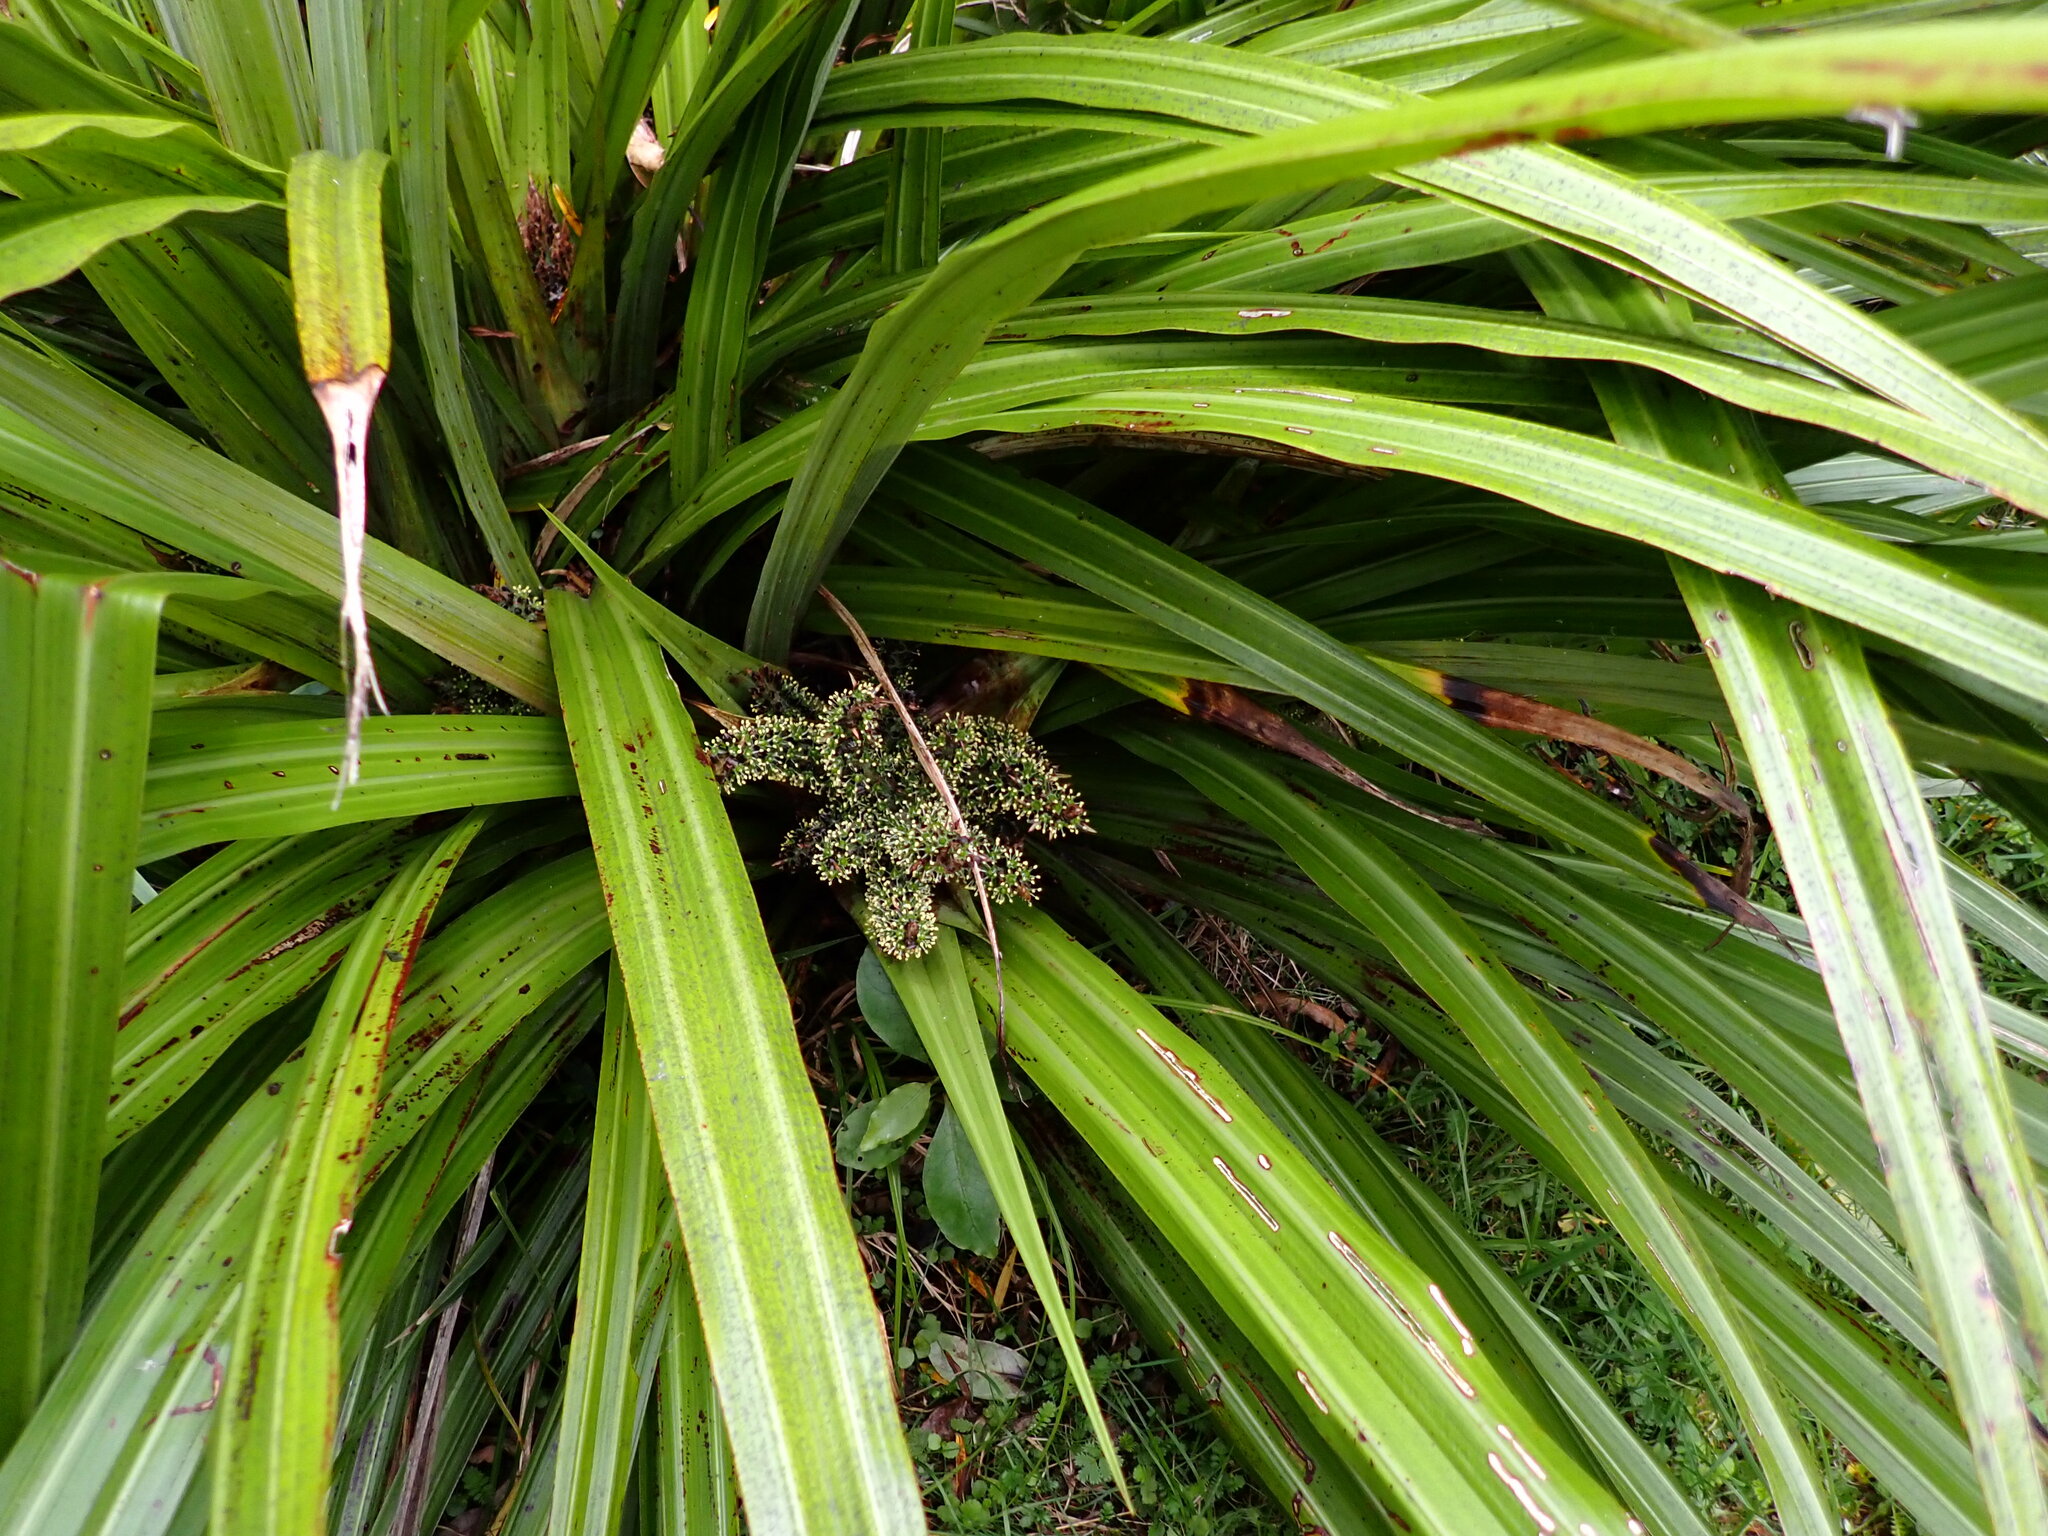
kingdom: Plantae
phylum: Tracheophyta
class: Liliopsida
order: Asparagales
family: Asteliaceae
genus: Astelia
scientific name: Astelia fragrans
